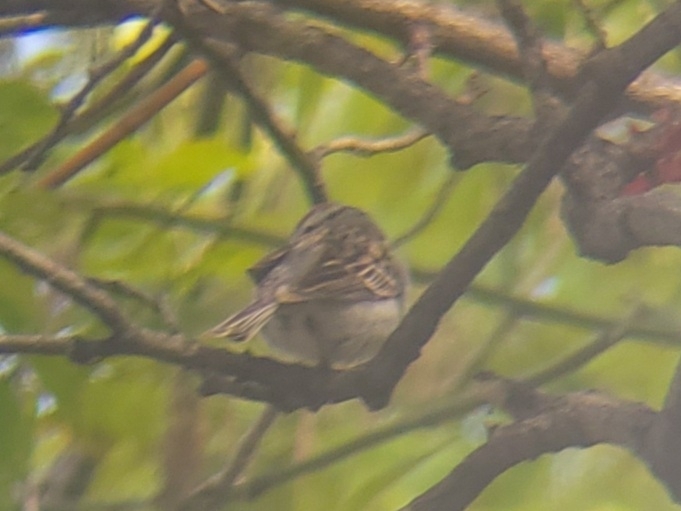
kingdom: Animalia
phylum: Chordata
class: Aves
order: Passeriformes
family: Passerellidae
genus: Spizella
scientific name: Spizella passerina
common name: Chipping sparrow
